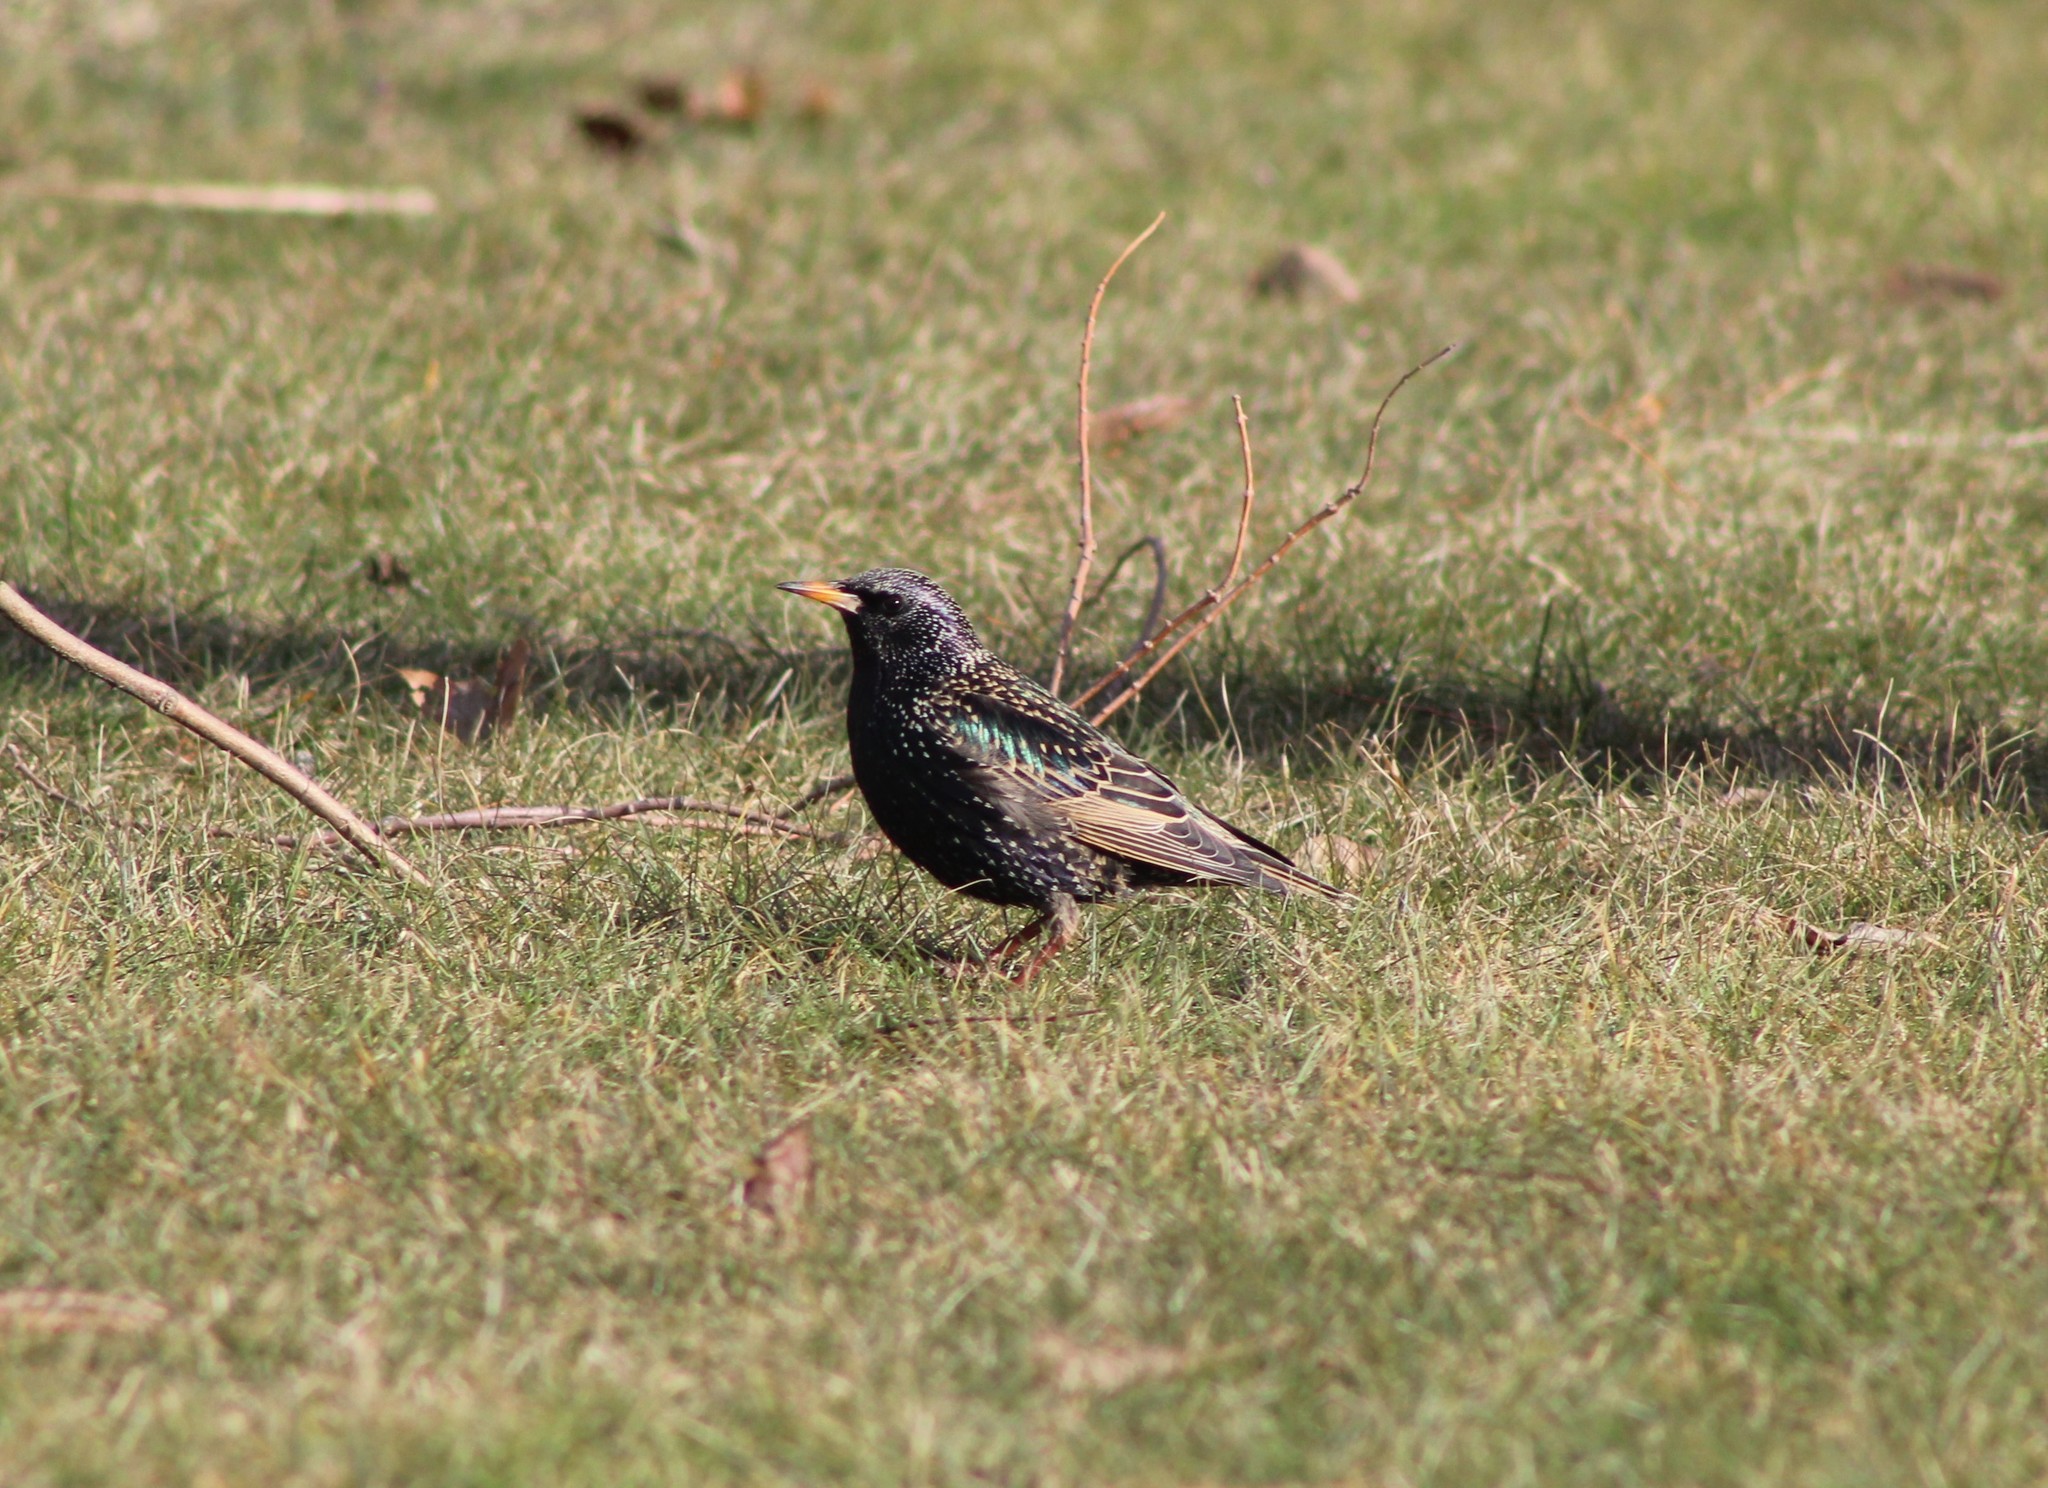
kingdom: Animalia
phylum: Chordata
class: Aves
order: Passeriformes
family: Sturnidae
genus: Sturnus
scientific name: Sturnus vulgaris
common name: Common starling
